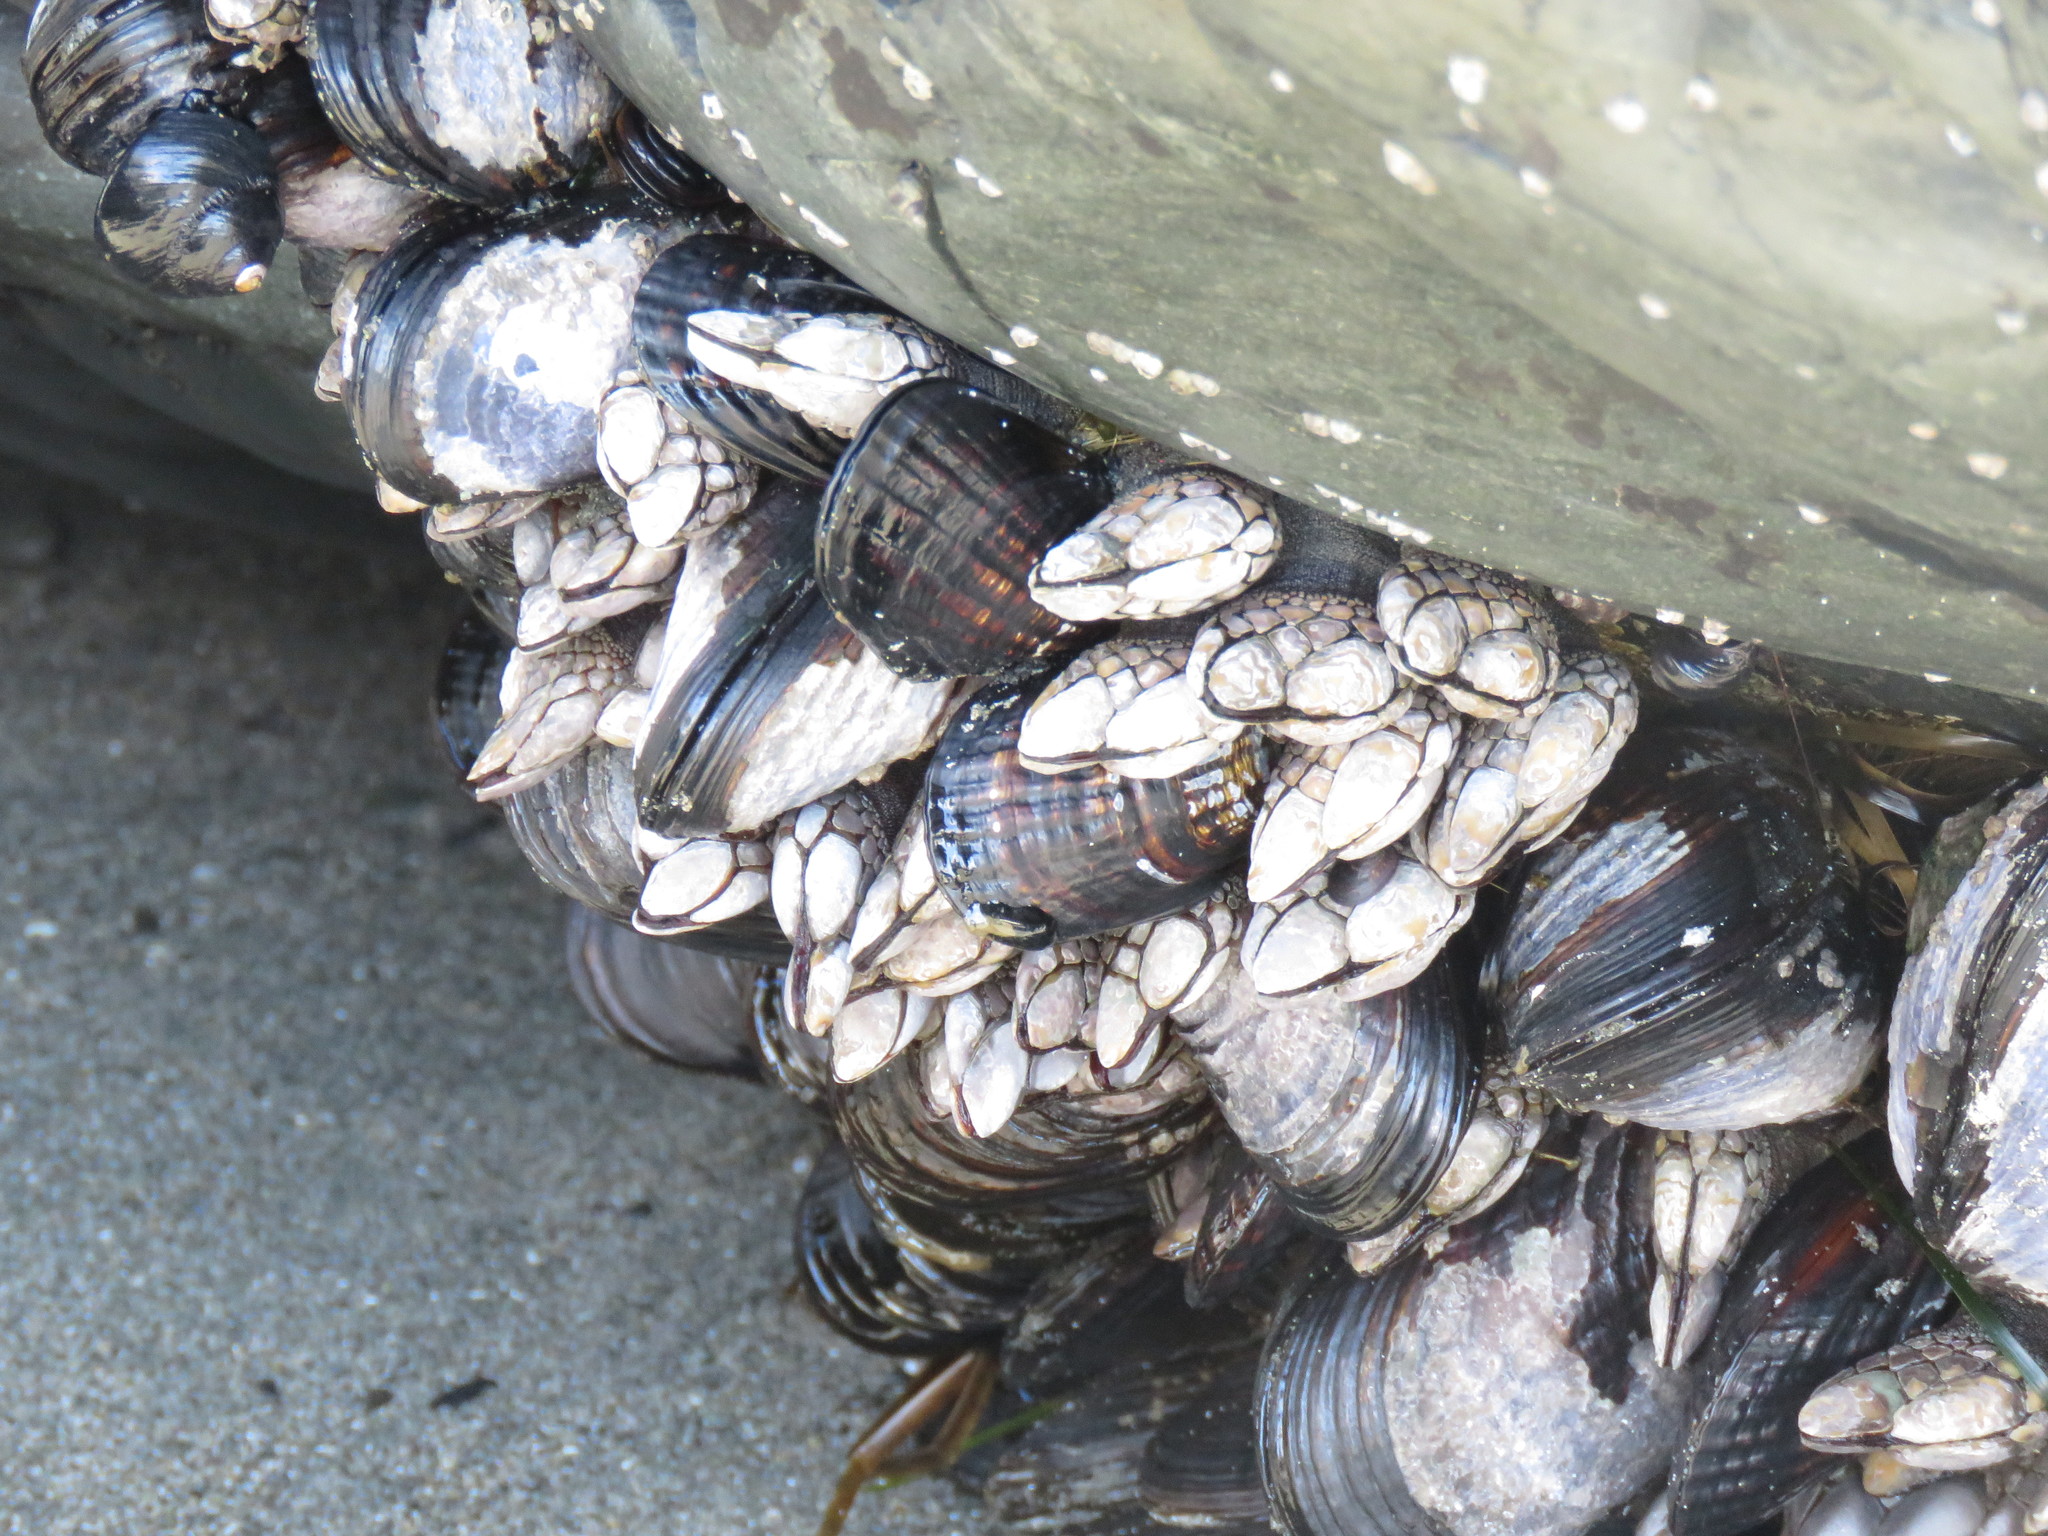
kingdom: Animalia
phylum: Arthropoda
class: Maxillopoda
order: Pedunculata
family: Pollicipedidae
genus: Pollicipes
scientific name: Pollicipes polymerus
